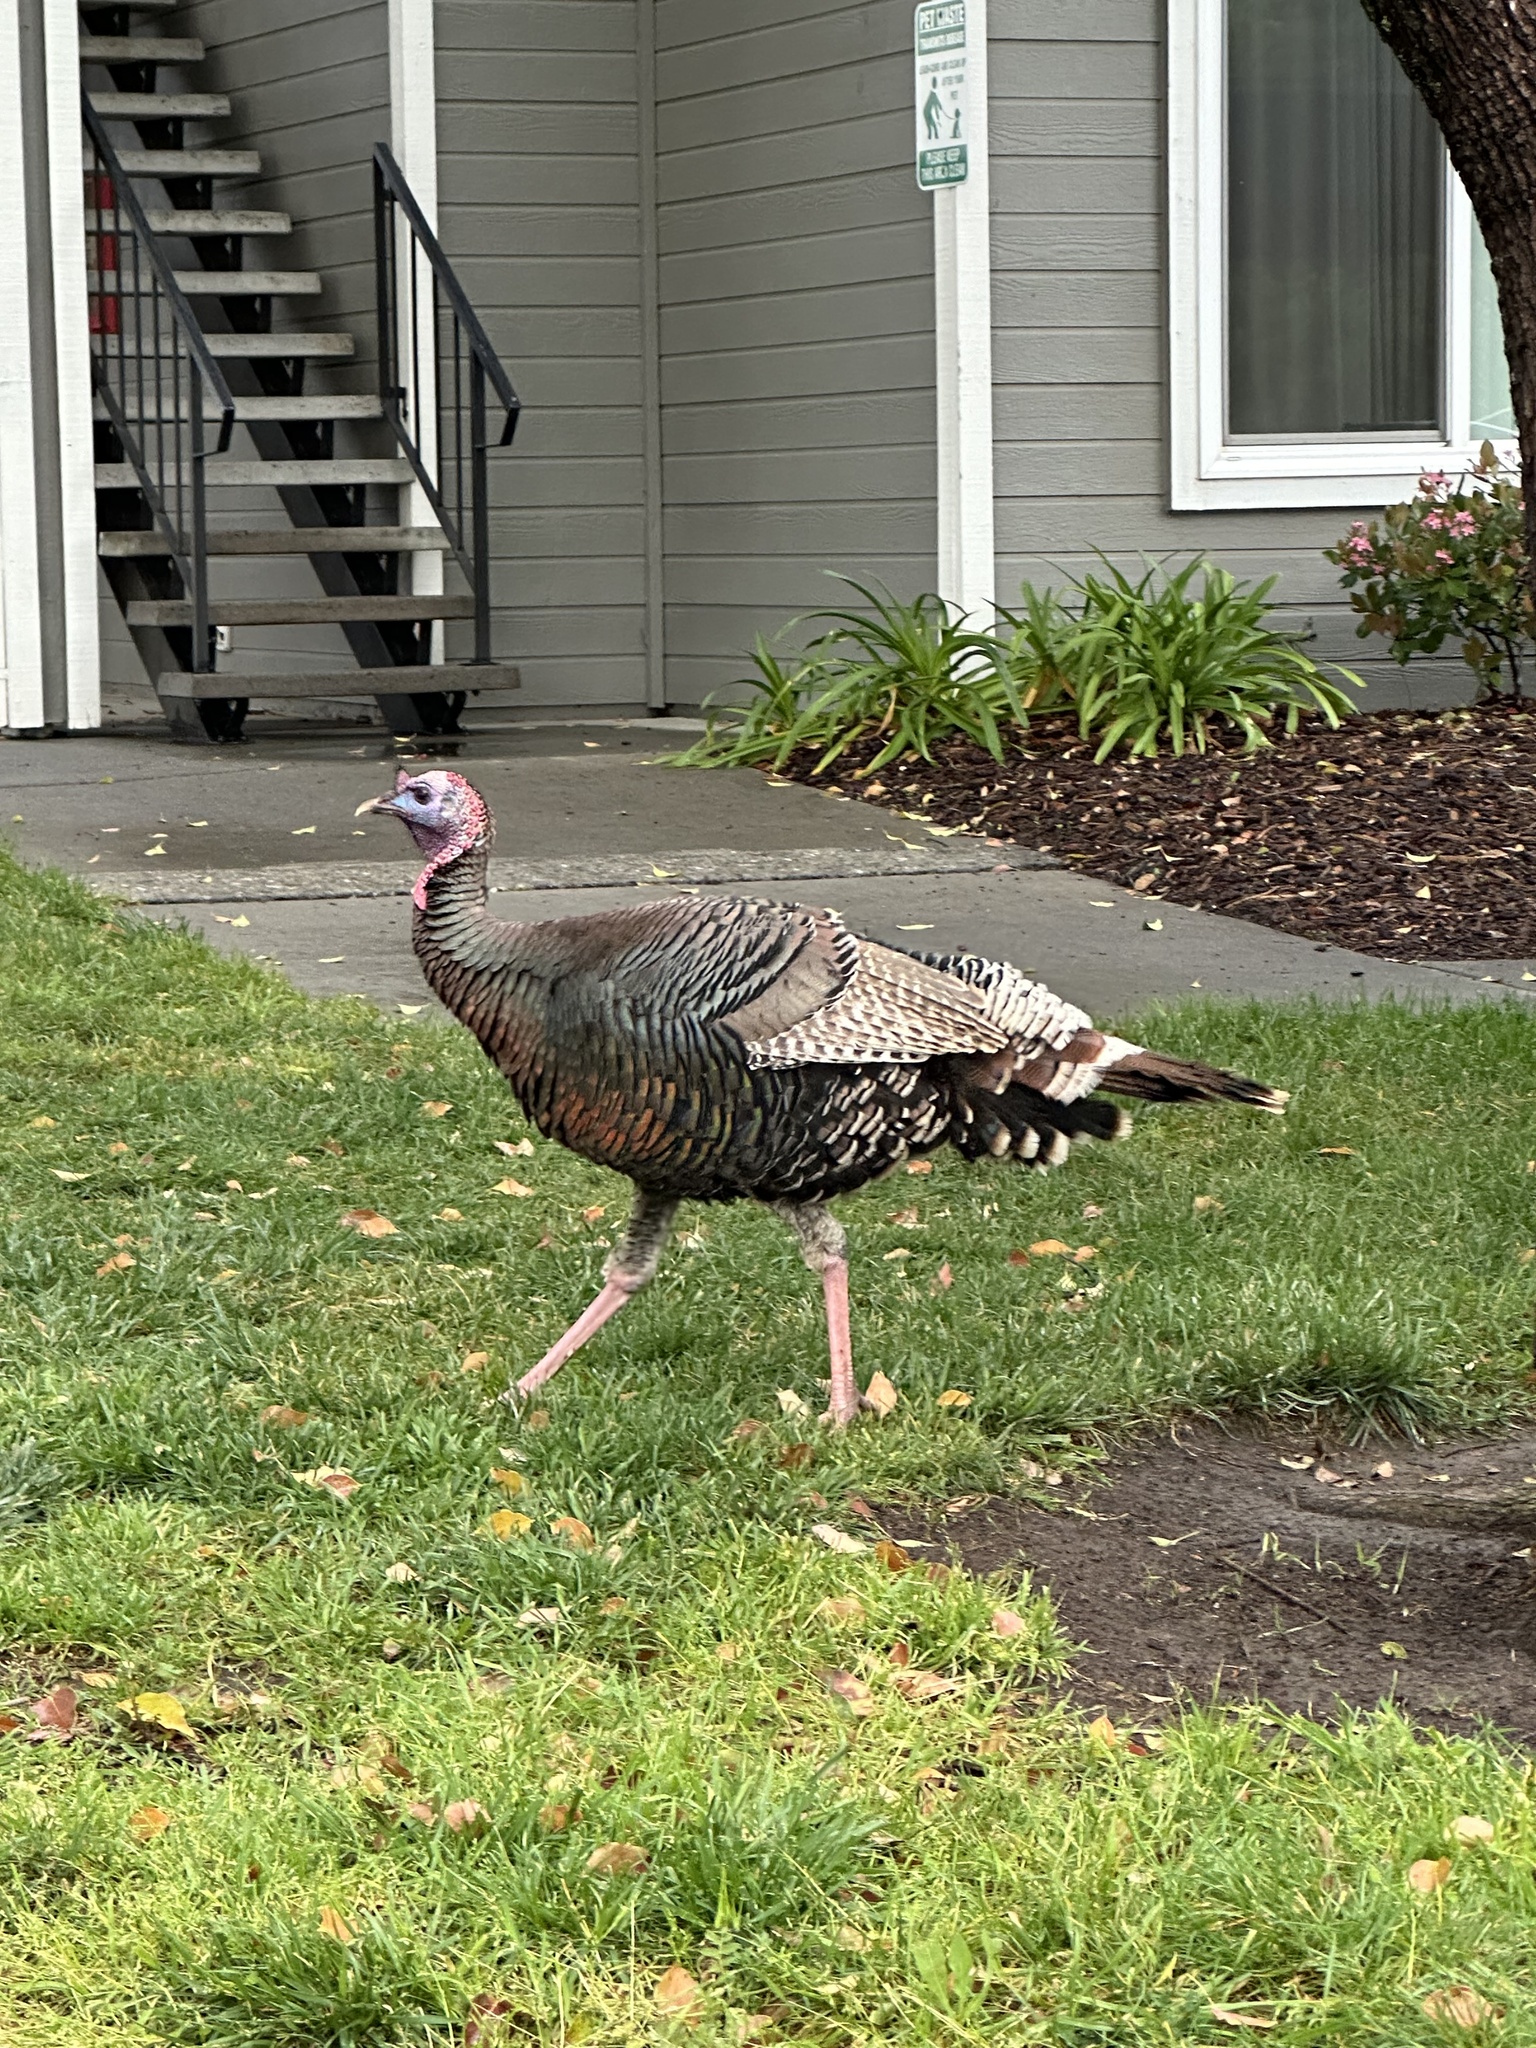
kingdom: Animalia
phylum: Chordata
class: Aves
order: Galliformes
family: Phasianidae
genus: Meleagris
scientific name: Meleagris gallopavo
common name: Wild turkey
